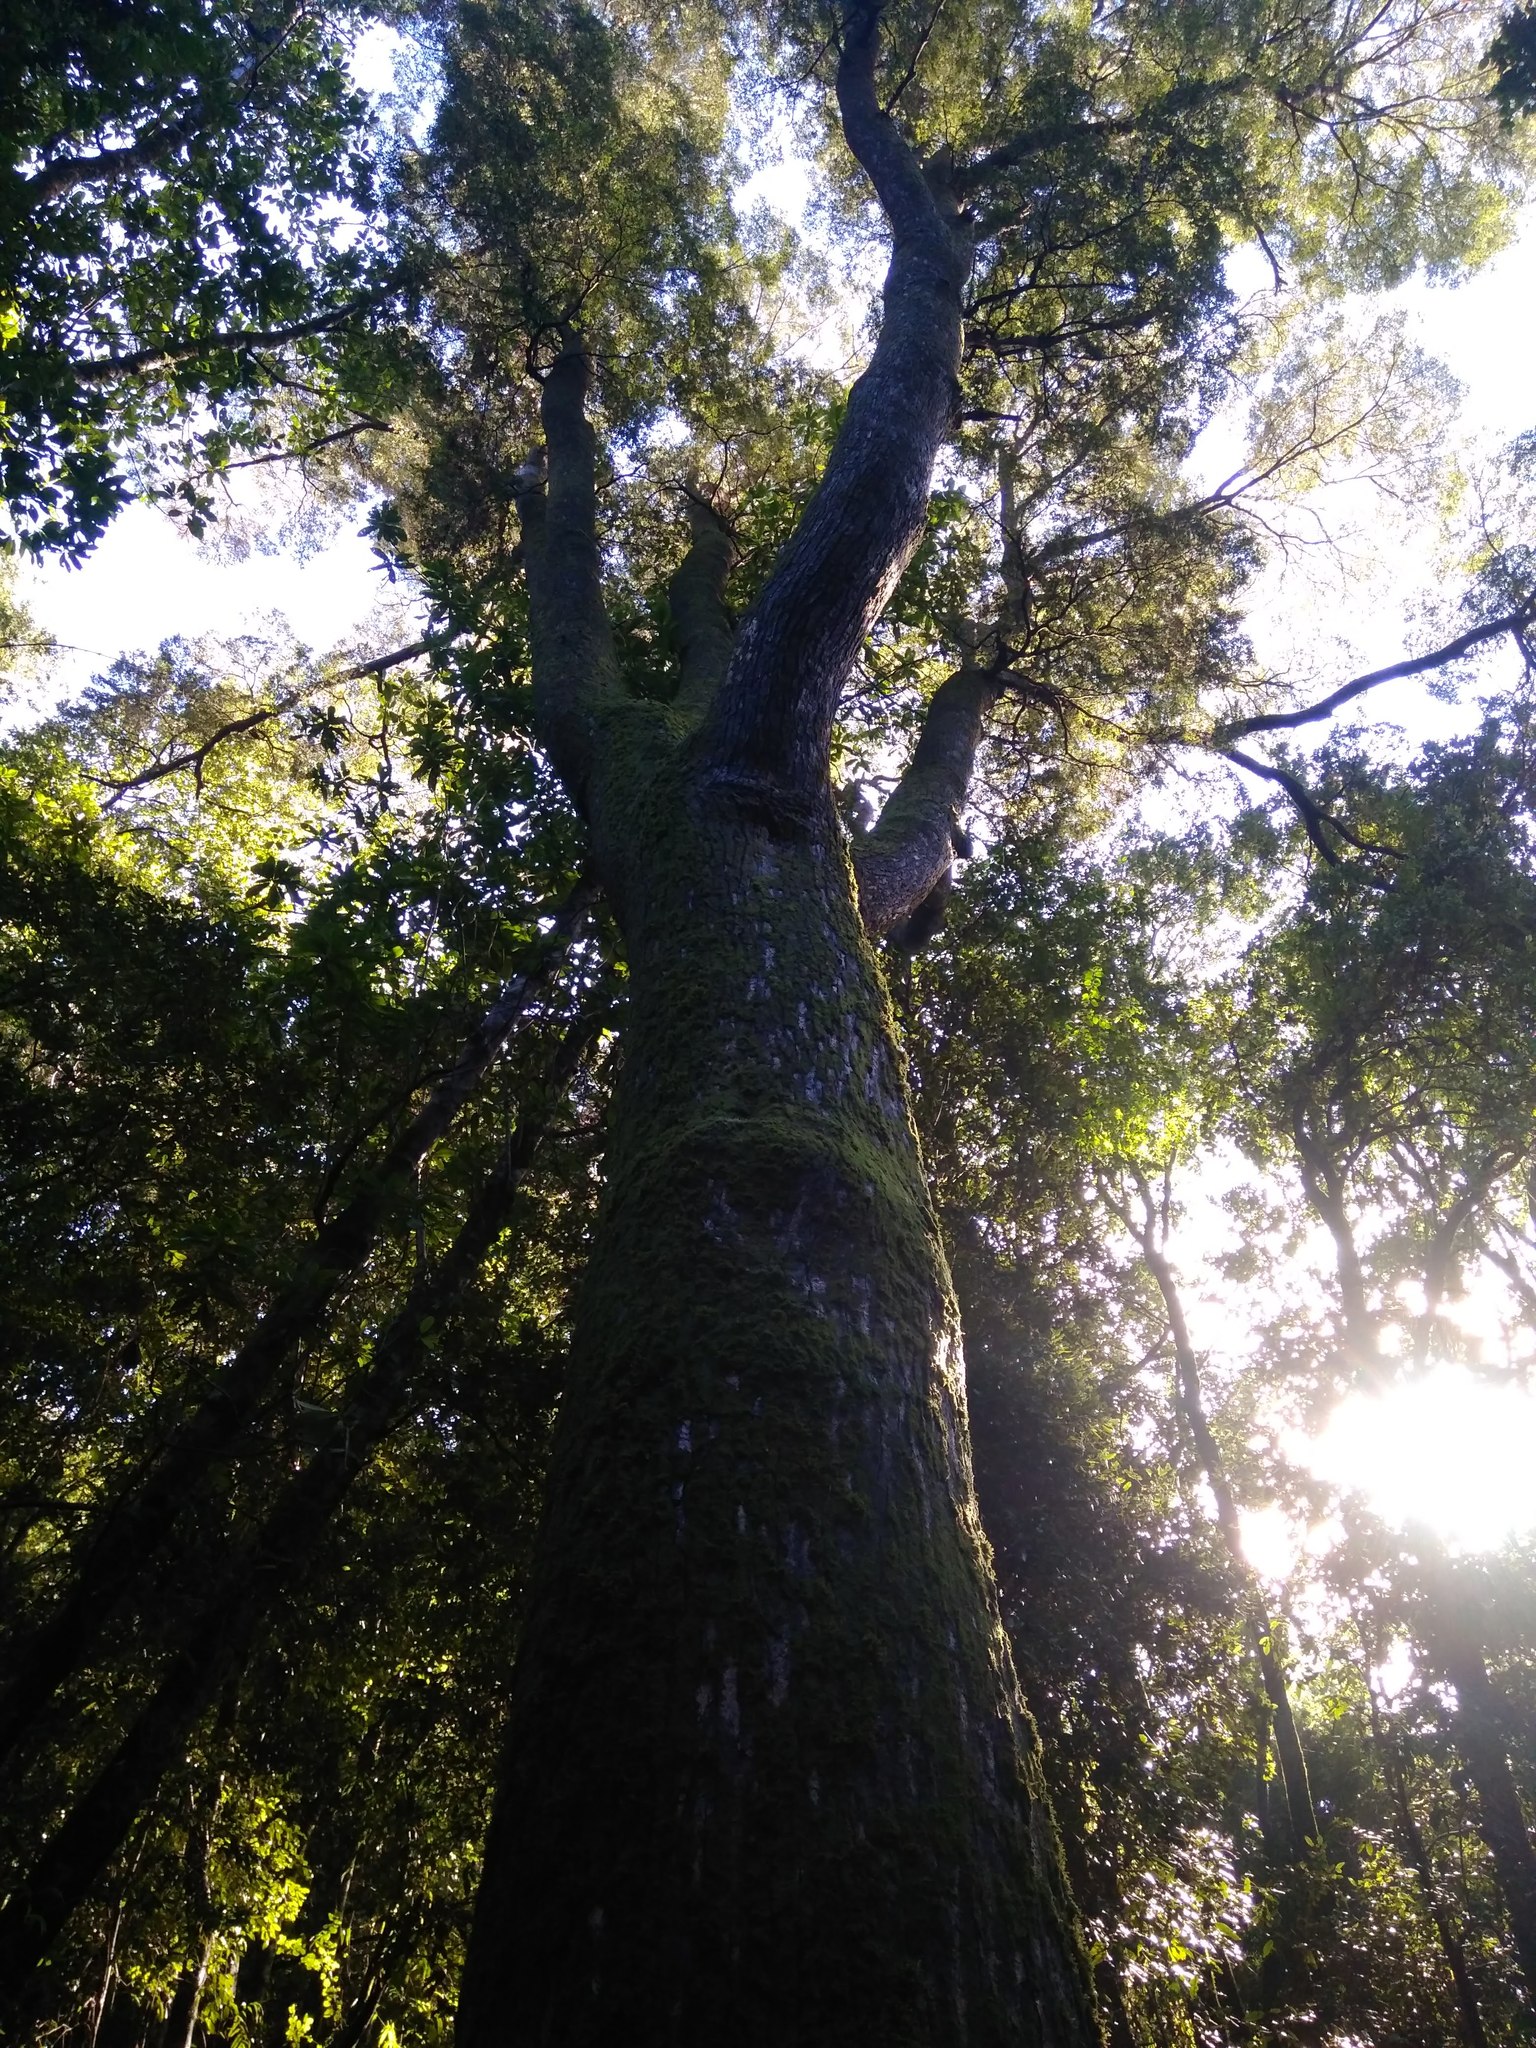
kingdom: Plantae
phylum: Tracheophyta
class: Magnoliopsida
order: Fagales
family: Nothofagaceae
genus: Nothofagus
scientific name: Nothofagus dombeyi
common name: Coigue
